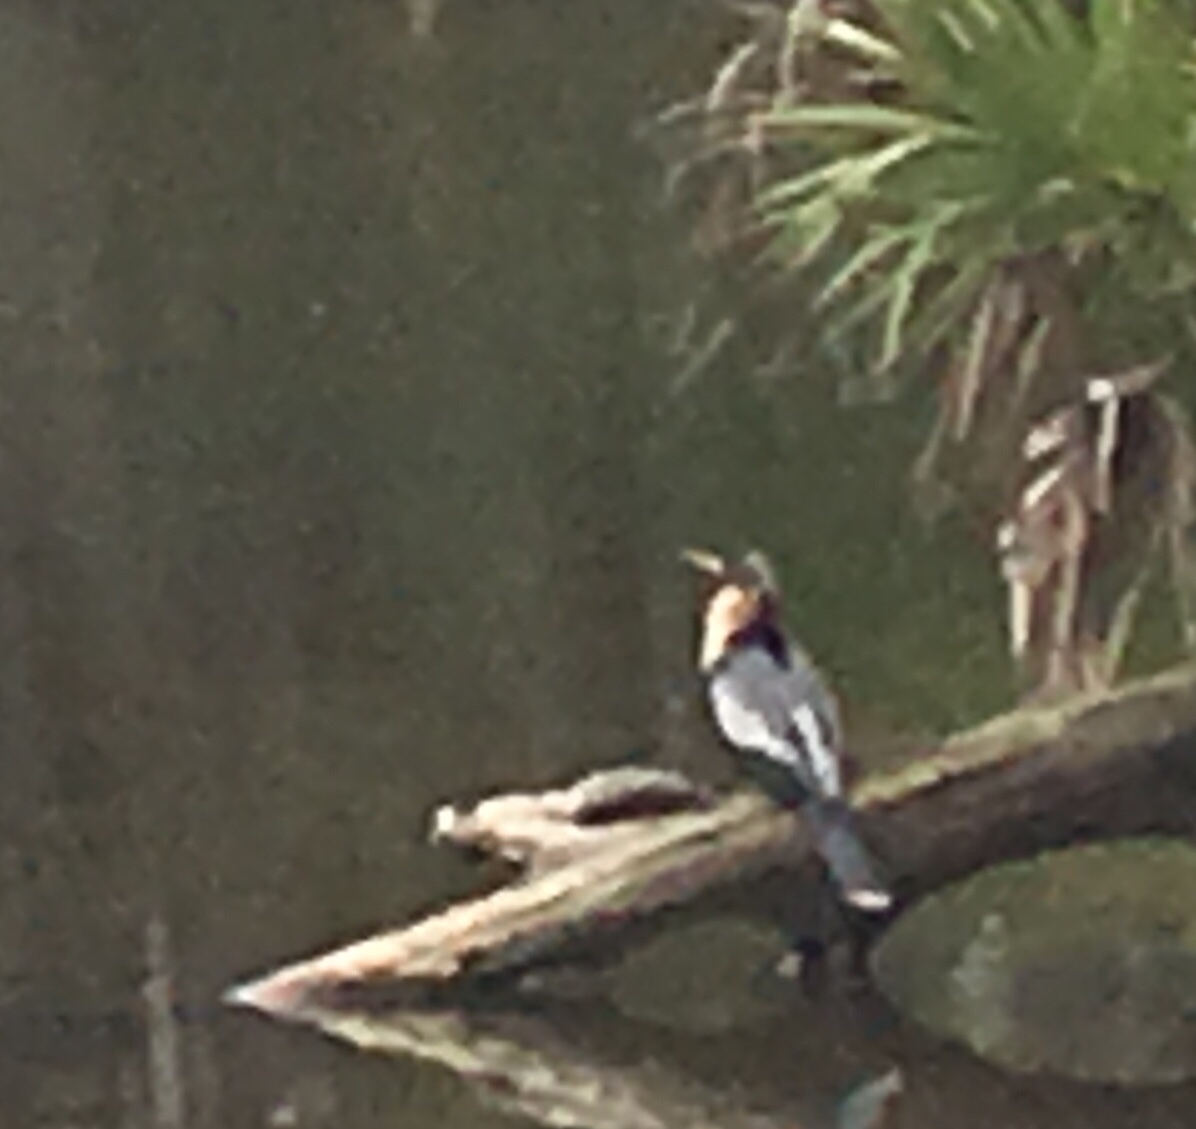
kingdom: Animalia
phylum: Chordata
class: Aves
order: Suliformes
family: Anhingidae
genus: Anhinga
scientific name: Anhinga anhinga
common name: Anhinga
